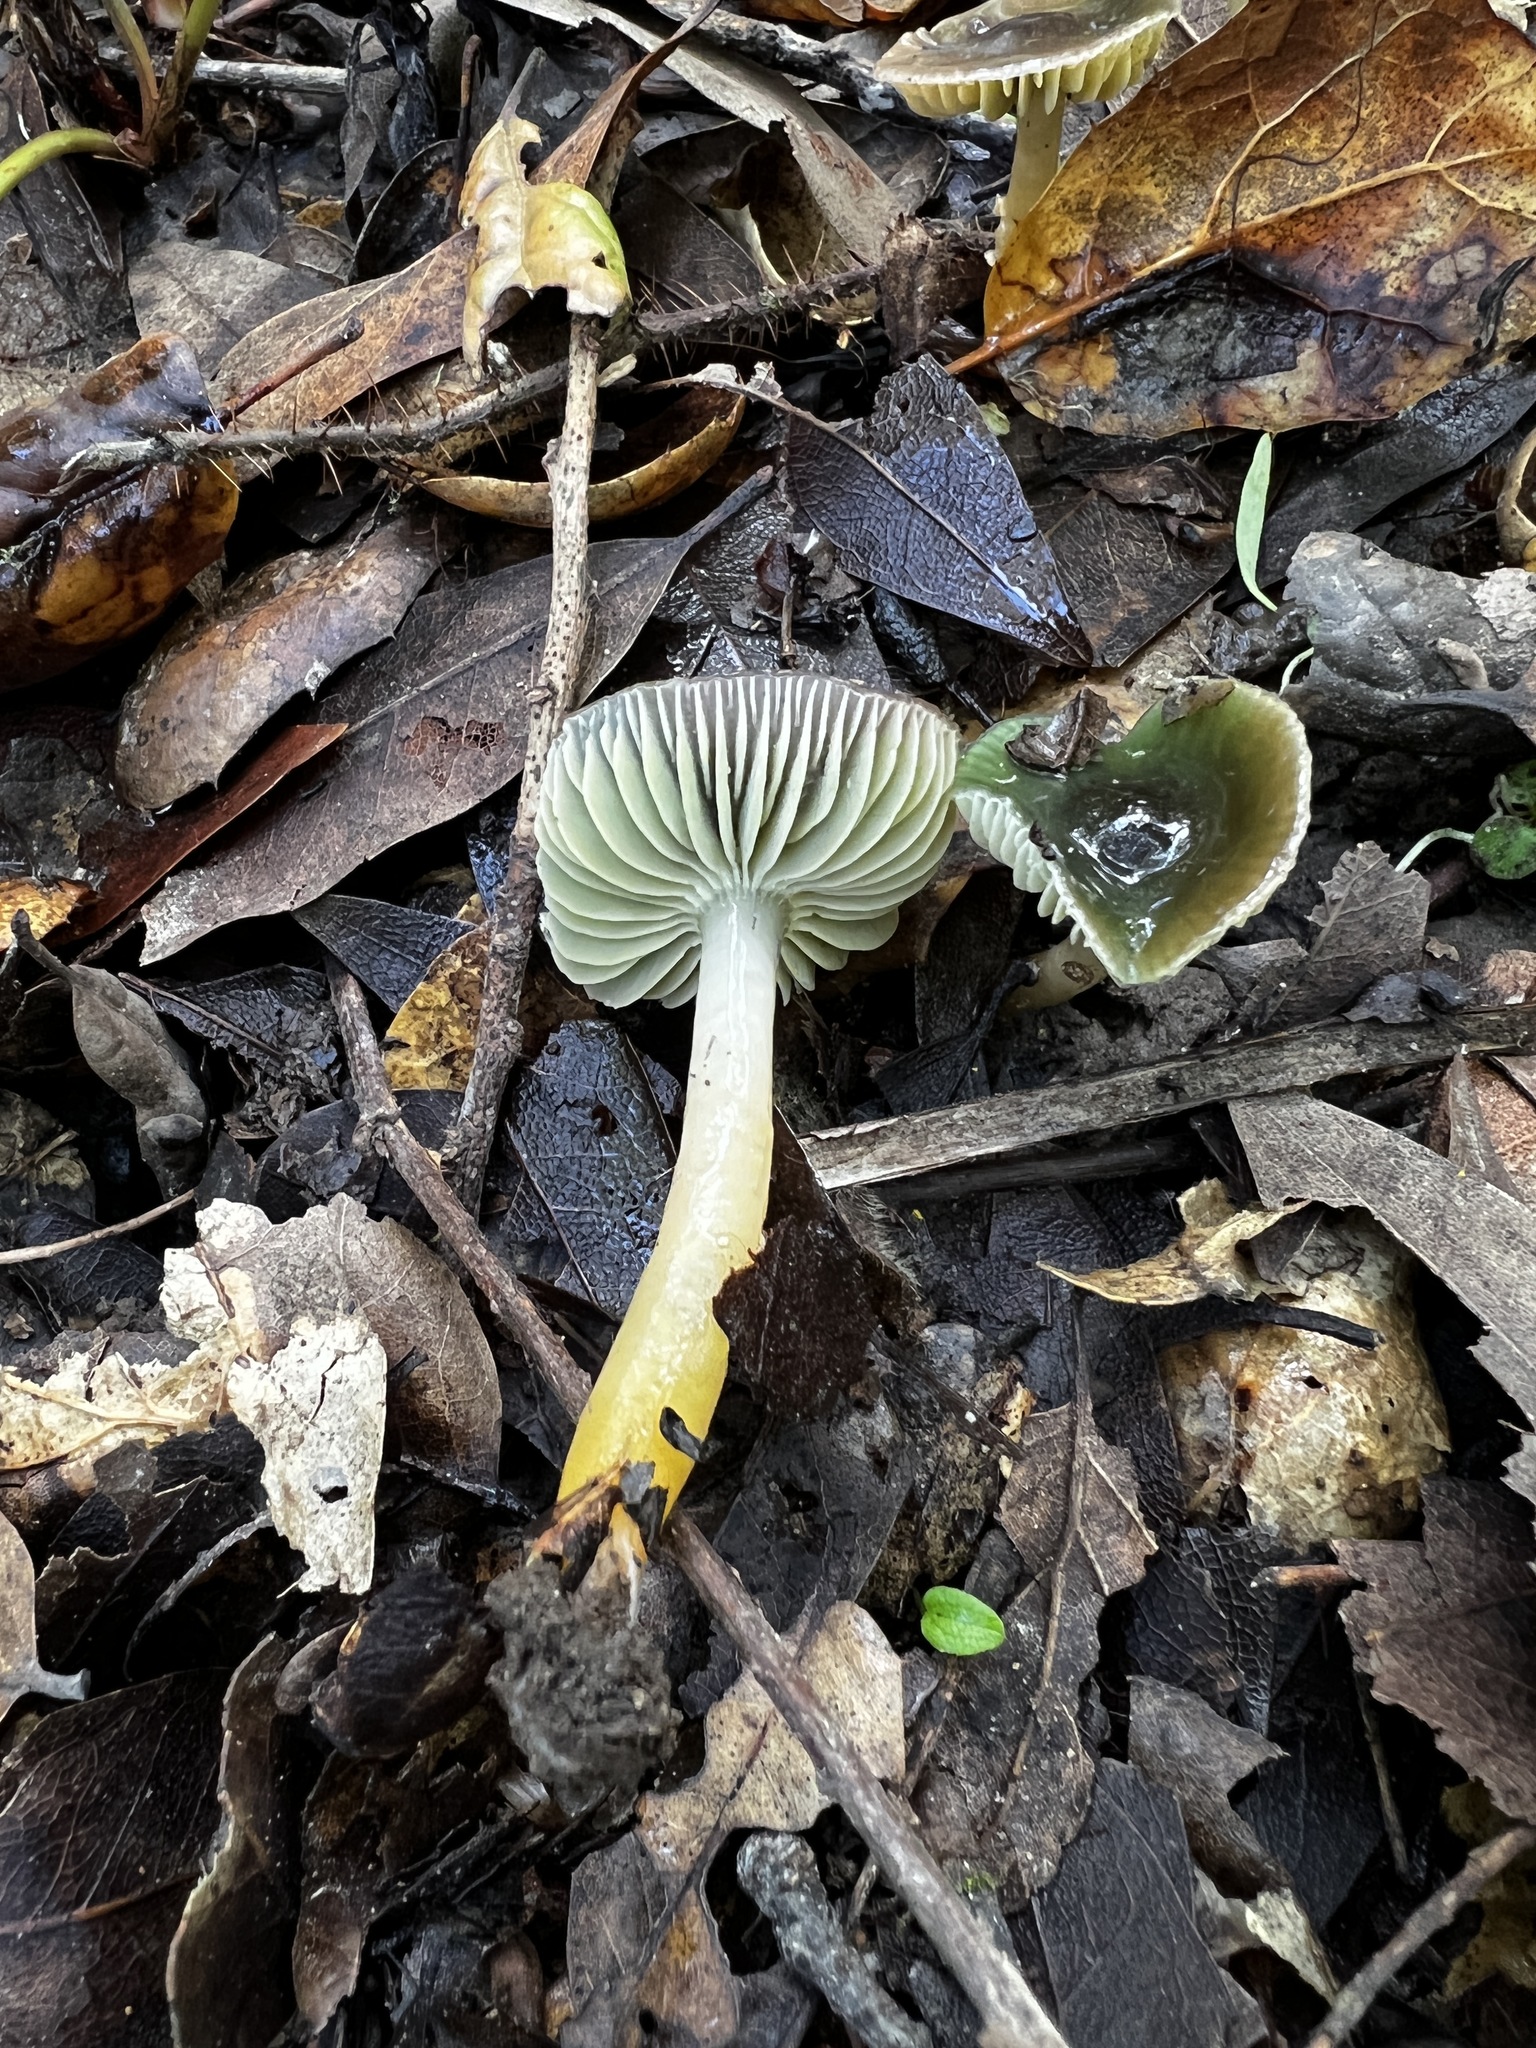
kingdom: Fungi
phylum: Basidiomycota
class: Agaricomycetes
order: Agaricales
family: Hygrophoraceae
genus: Gliophorus
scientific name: Gliophorus psittacinus
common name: Parrot wax-cap
